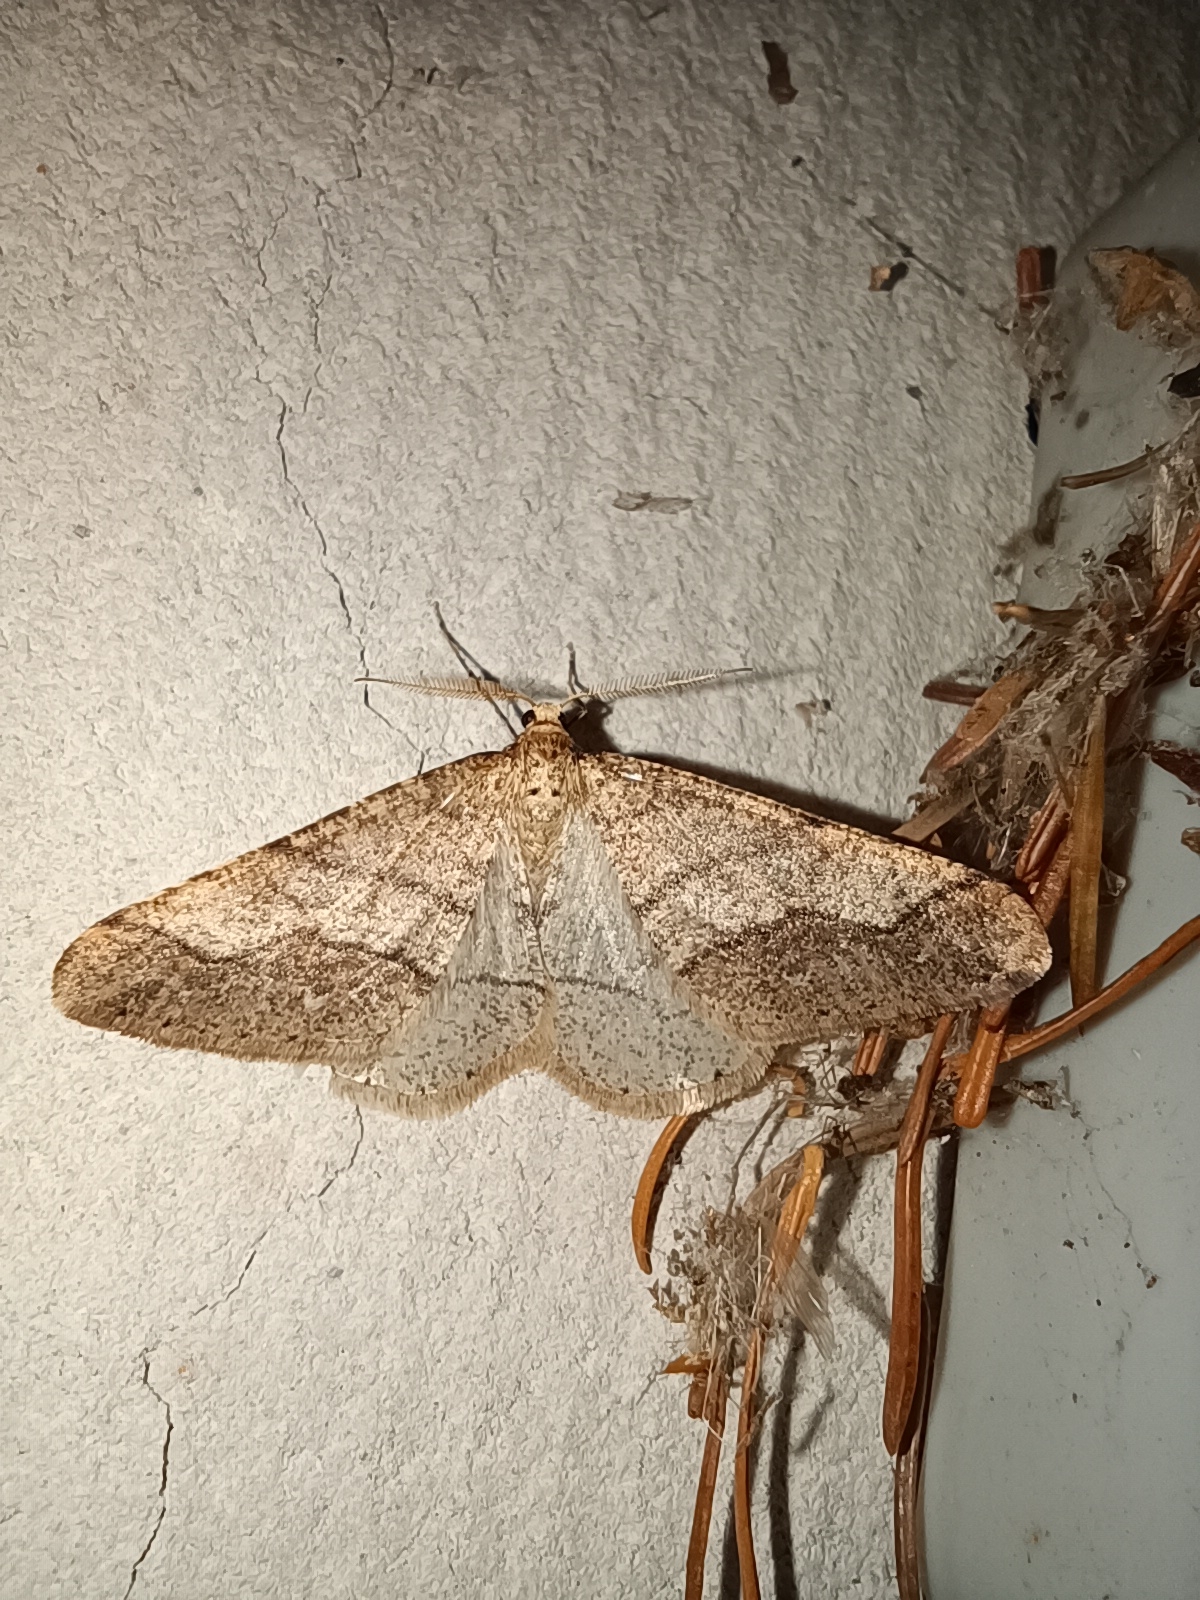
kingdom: Animalia
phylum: Arthropoda
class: Insecta
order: Lepidoptera
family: Geometridae
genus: Agriopis
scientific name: Agriopis marginaria
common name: Dotted border
